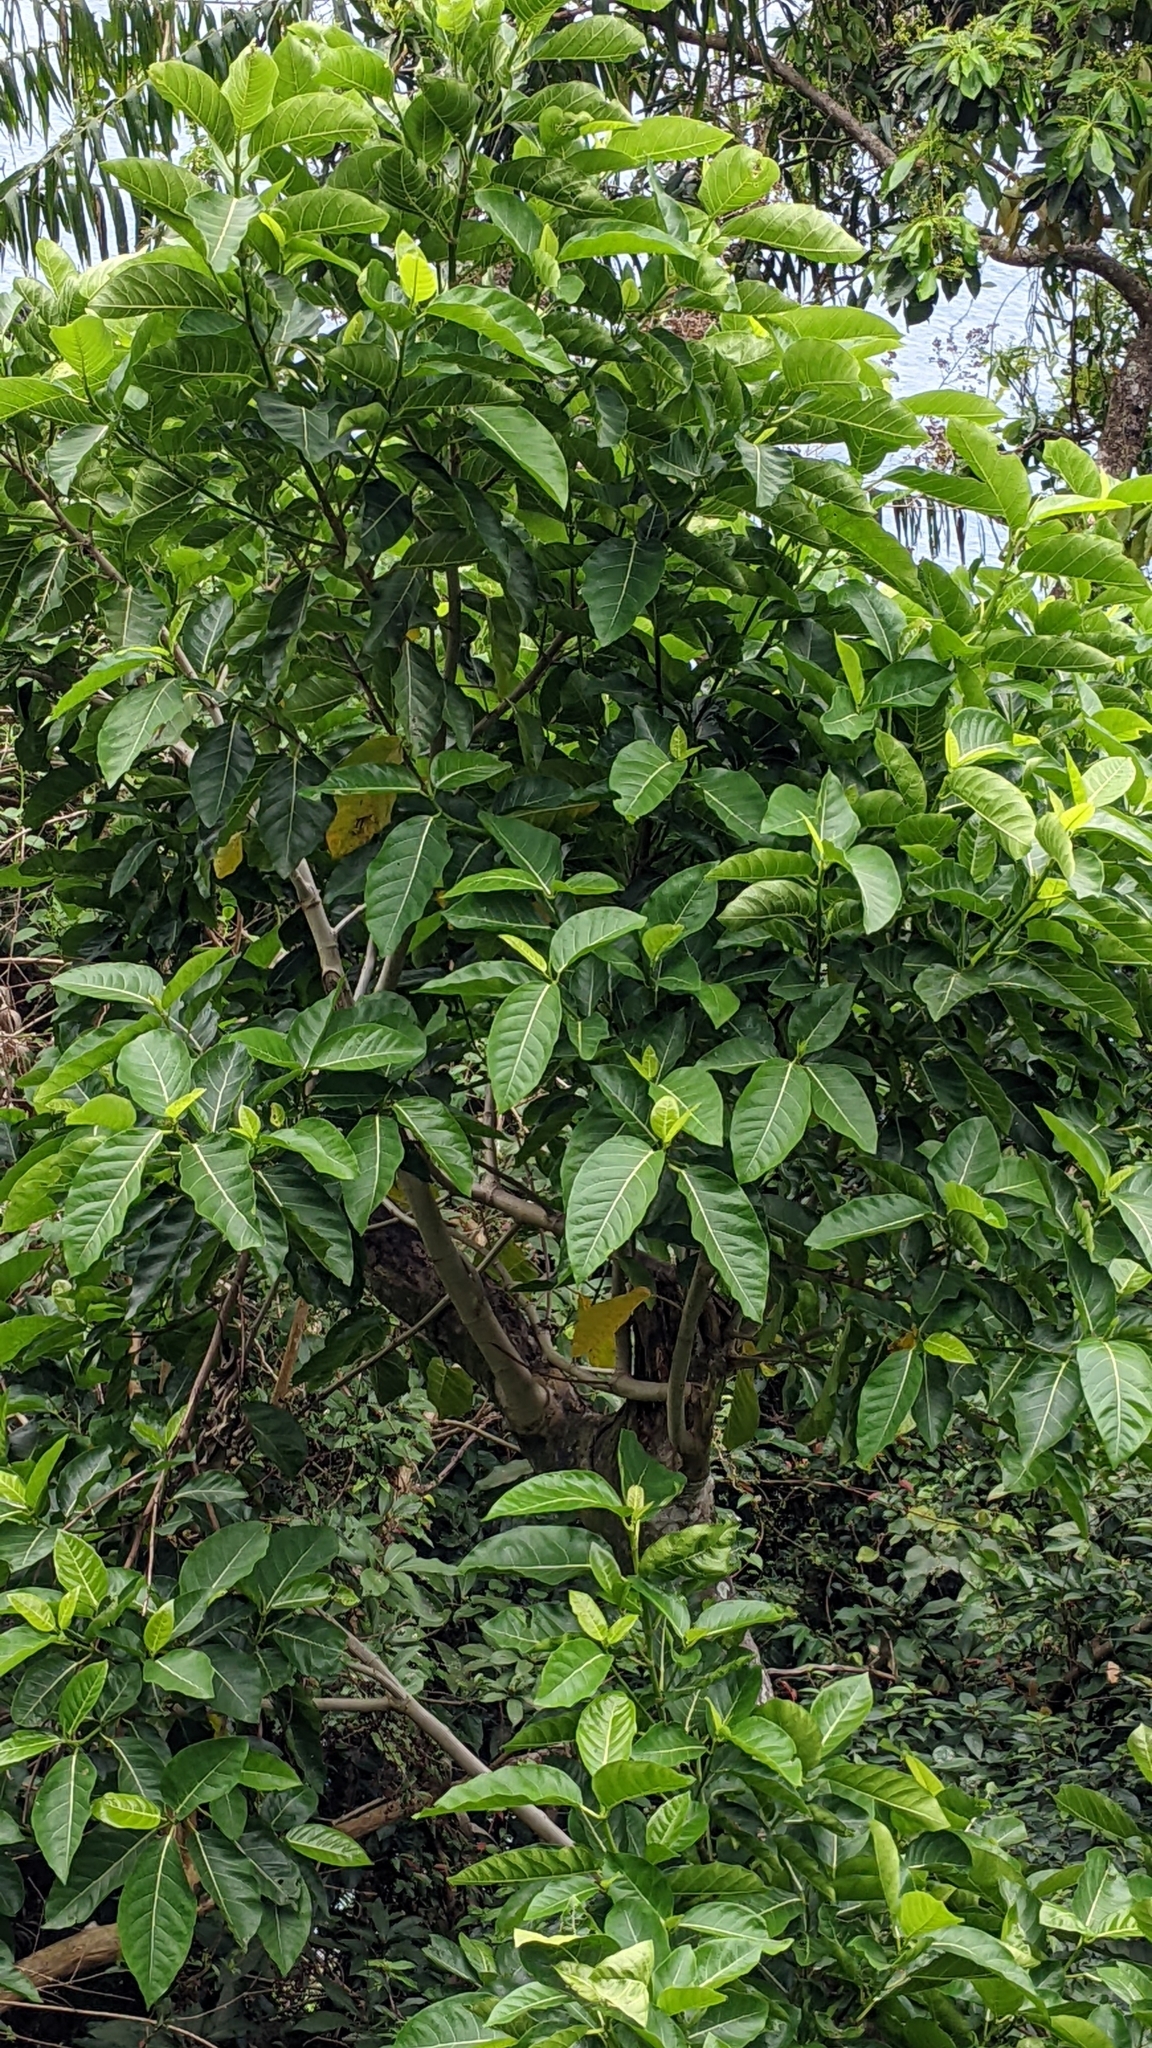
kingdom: Plantae
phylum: Tracheophyta
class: Magnoliopsida
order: Rosales
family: Moraceae
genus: Ficus
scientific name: Ficus septica
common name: Septic fig
